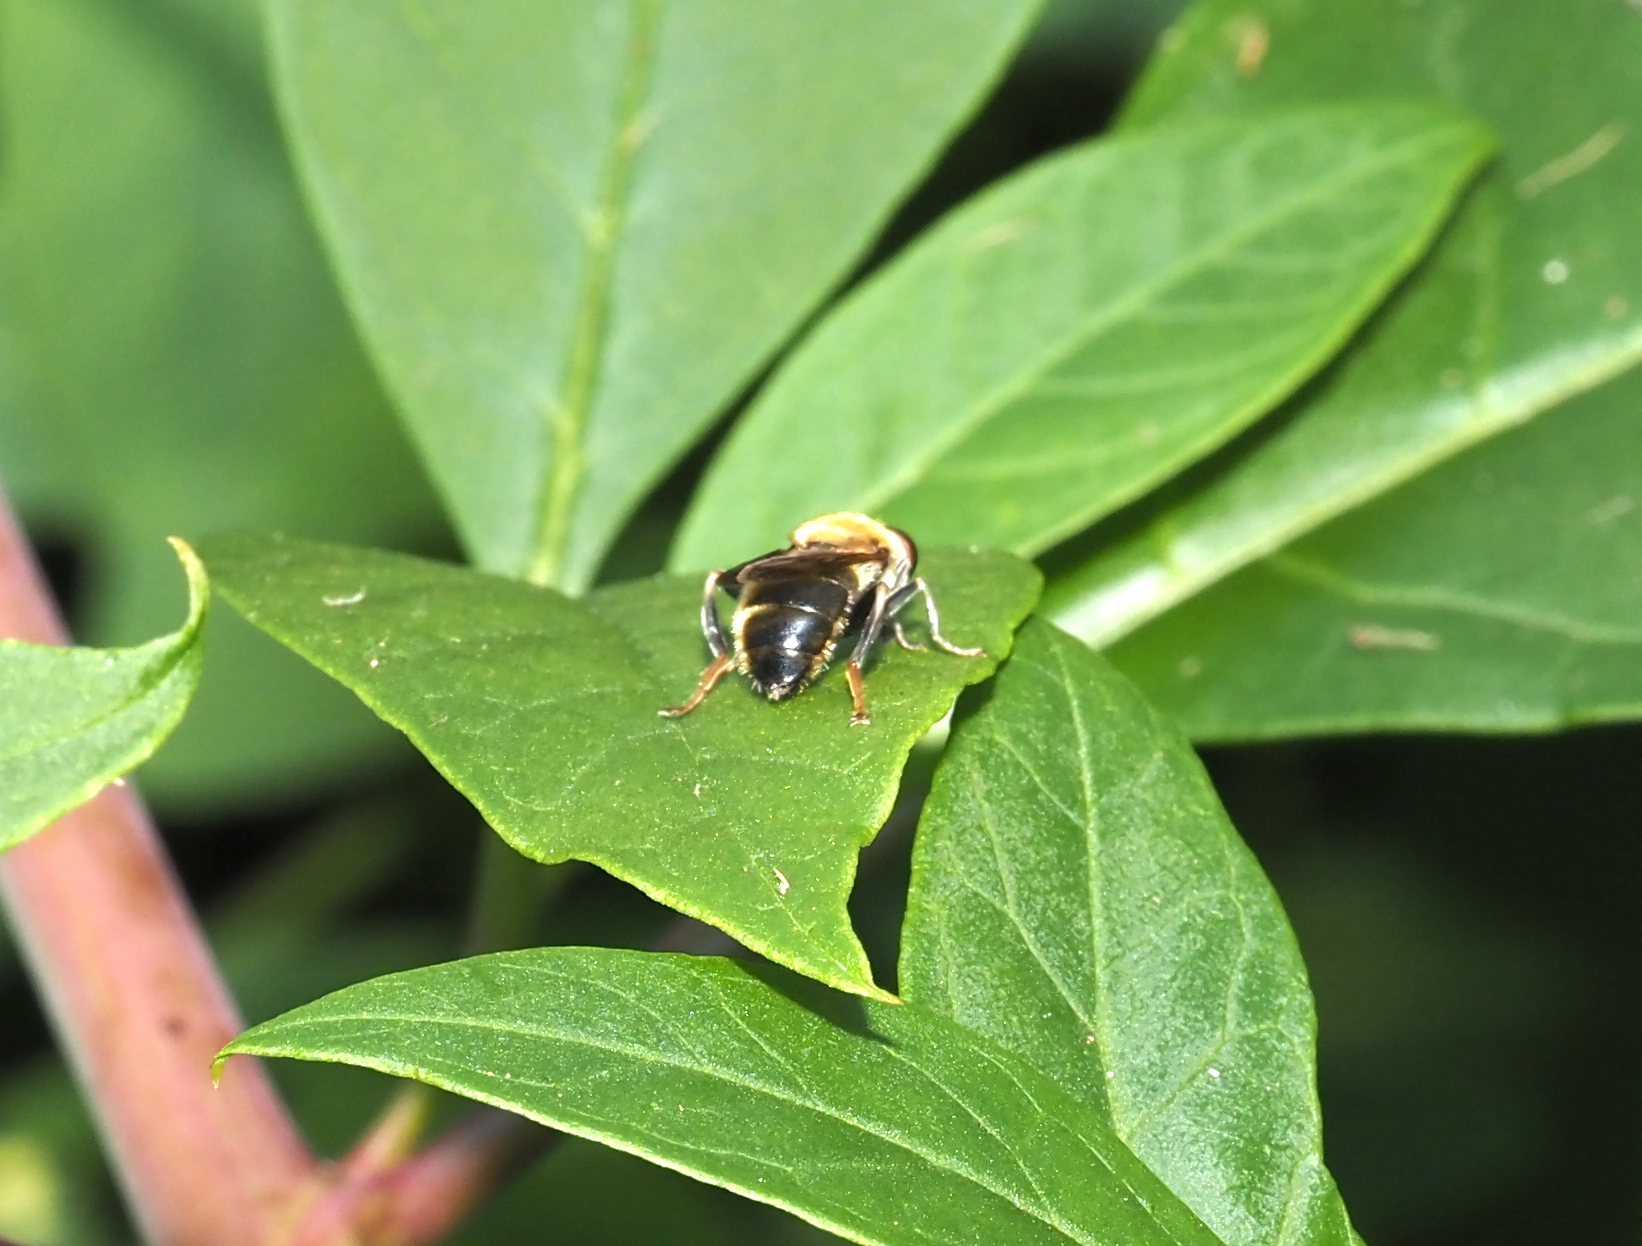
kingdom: Animalia
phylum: Arthropoda
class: Insecta
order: Diptera
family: Syrphidae
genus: Pterallastes
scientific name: Pterallastes thoracicus
